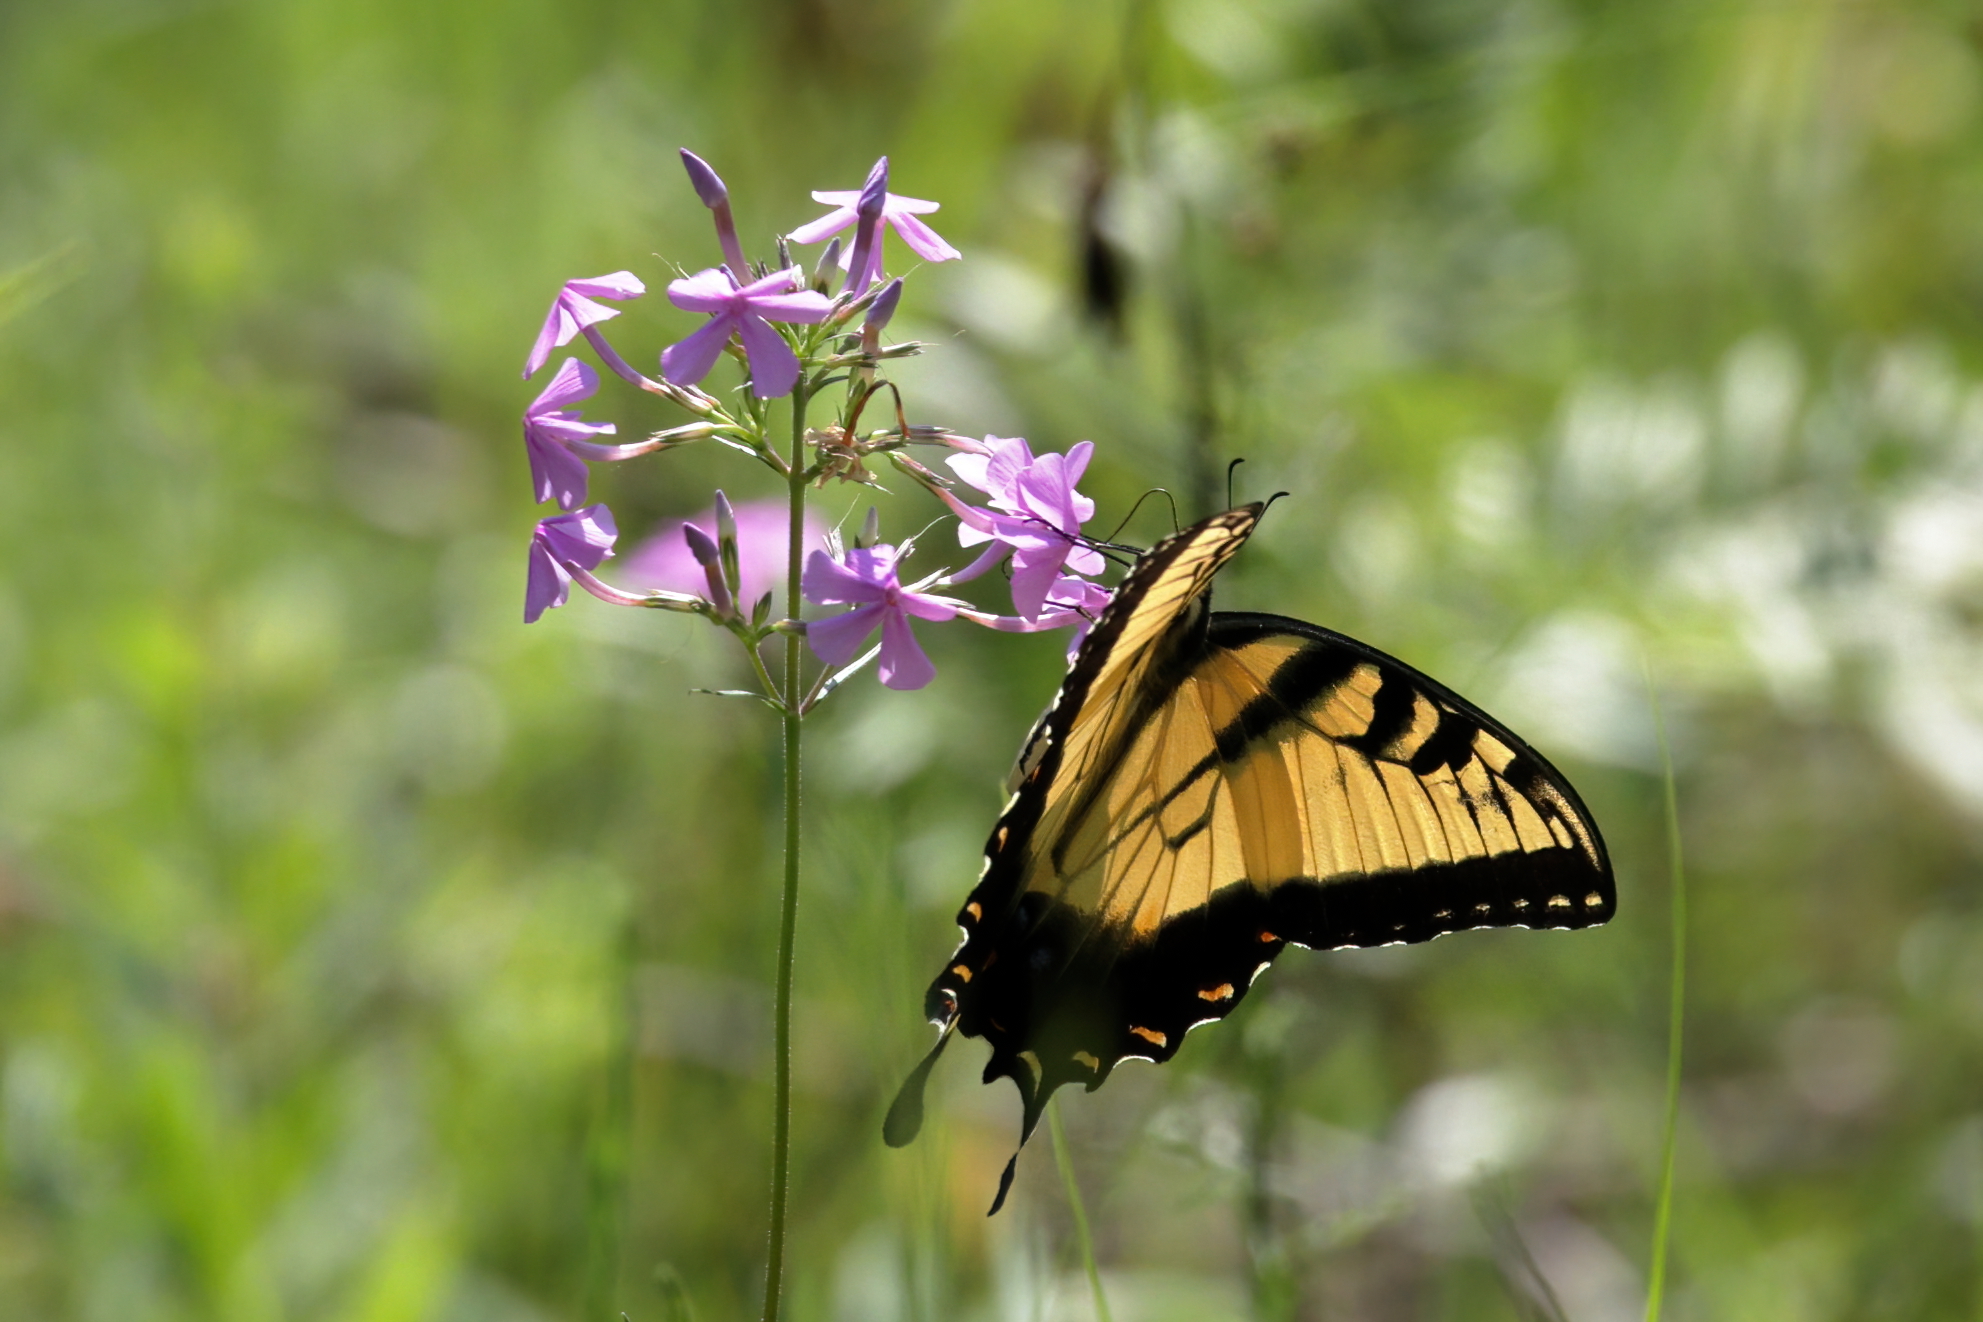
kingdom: Animalia
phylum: Arthropoda
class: Insecta
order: Lepidoptera
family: Papilionidae
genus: Papilio
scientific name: Papilio glaucus
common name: Tiger swallowtail
